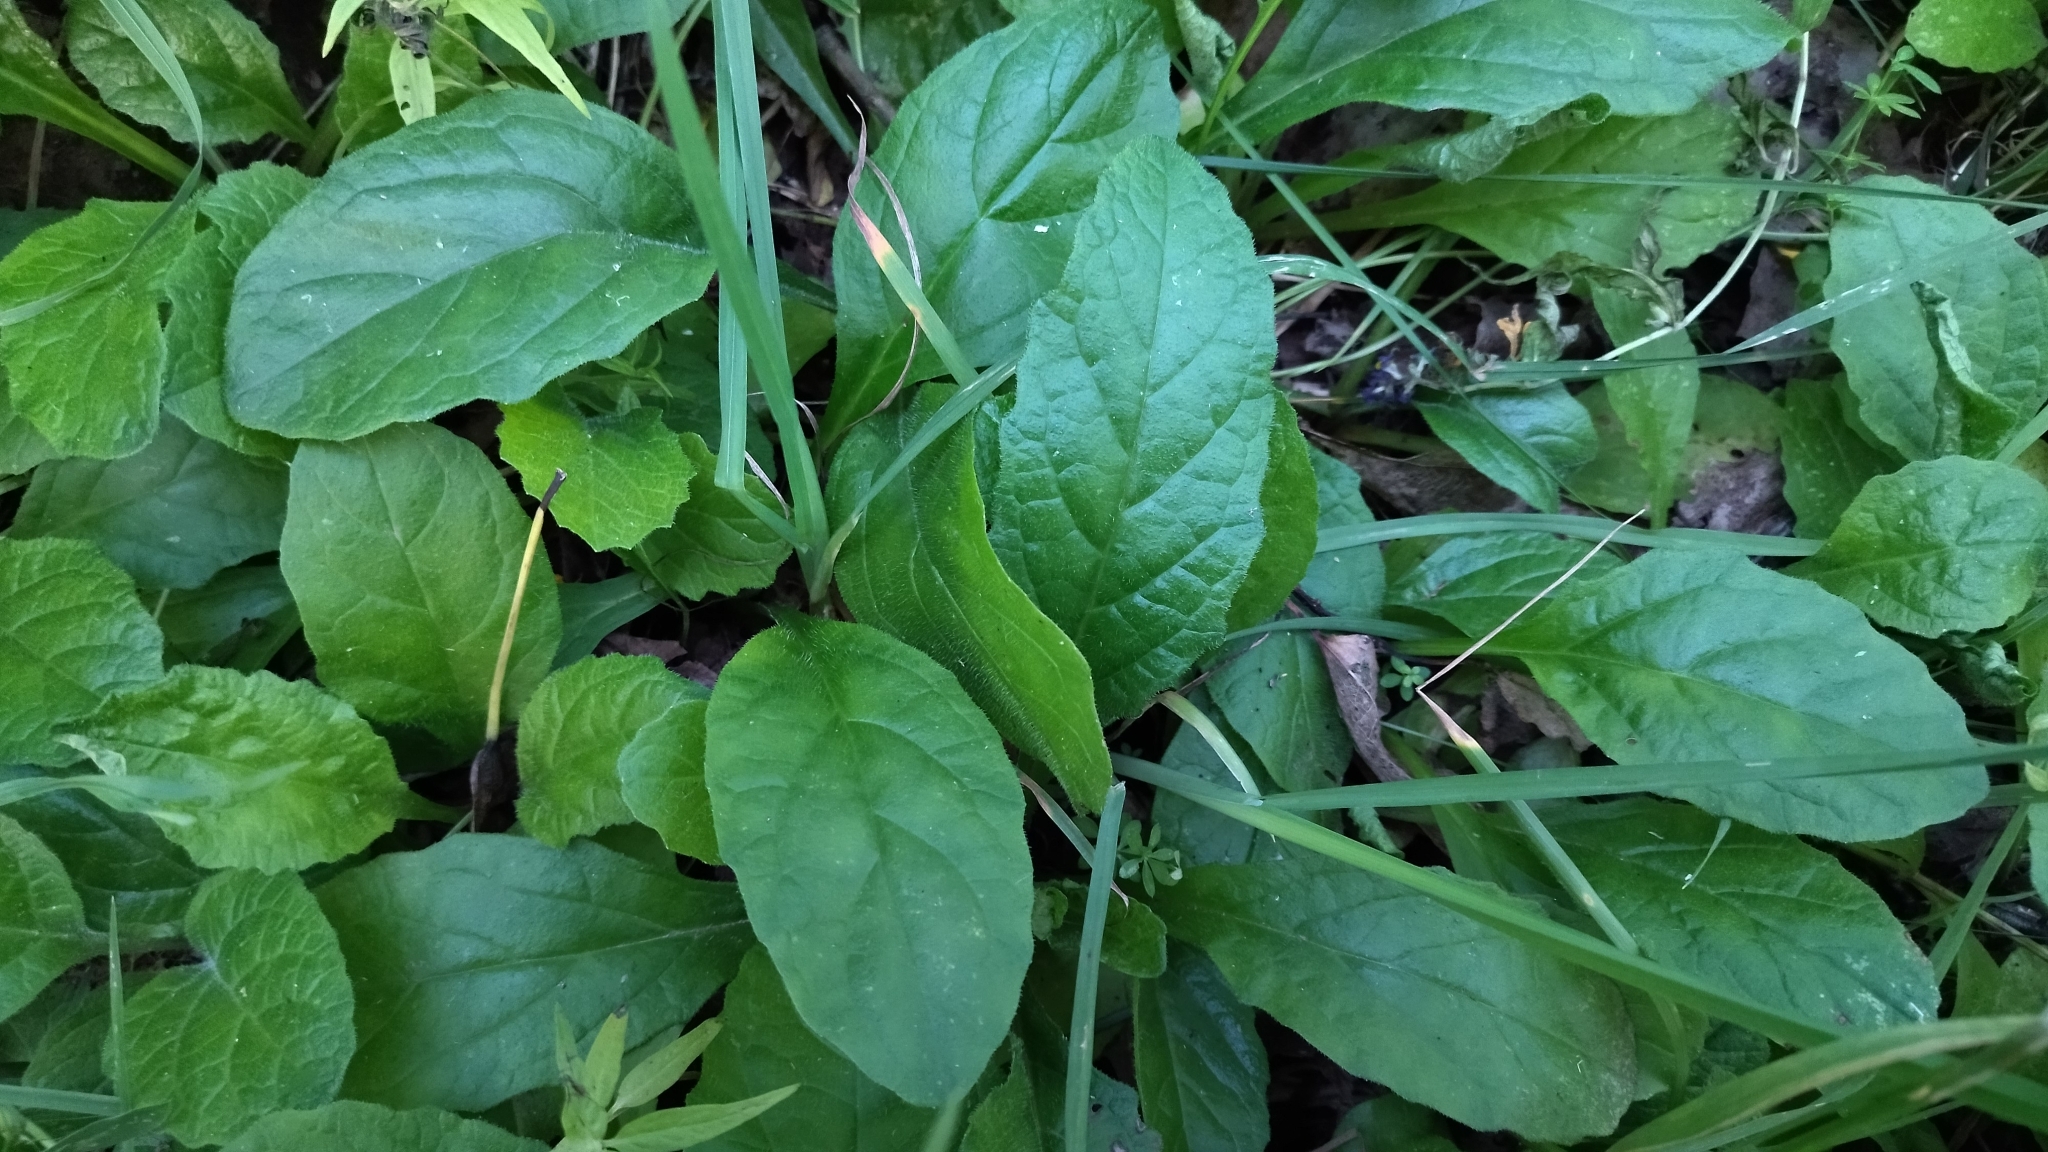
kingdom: Plantae
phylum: Tracheophyta
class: Magnoliopsida
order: Lamiales
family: Lamiaceae
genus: Ajuga
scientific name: Ajuga reptans
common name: Bugle
